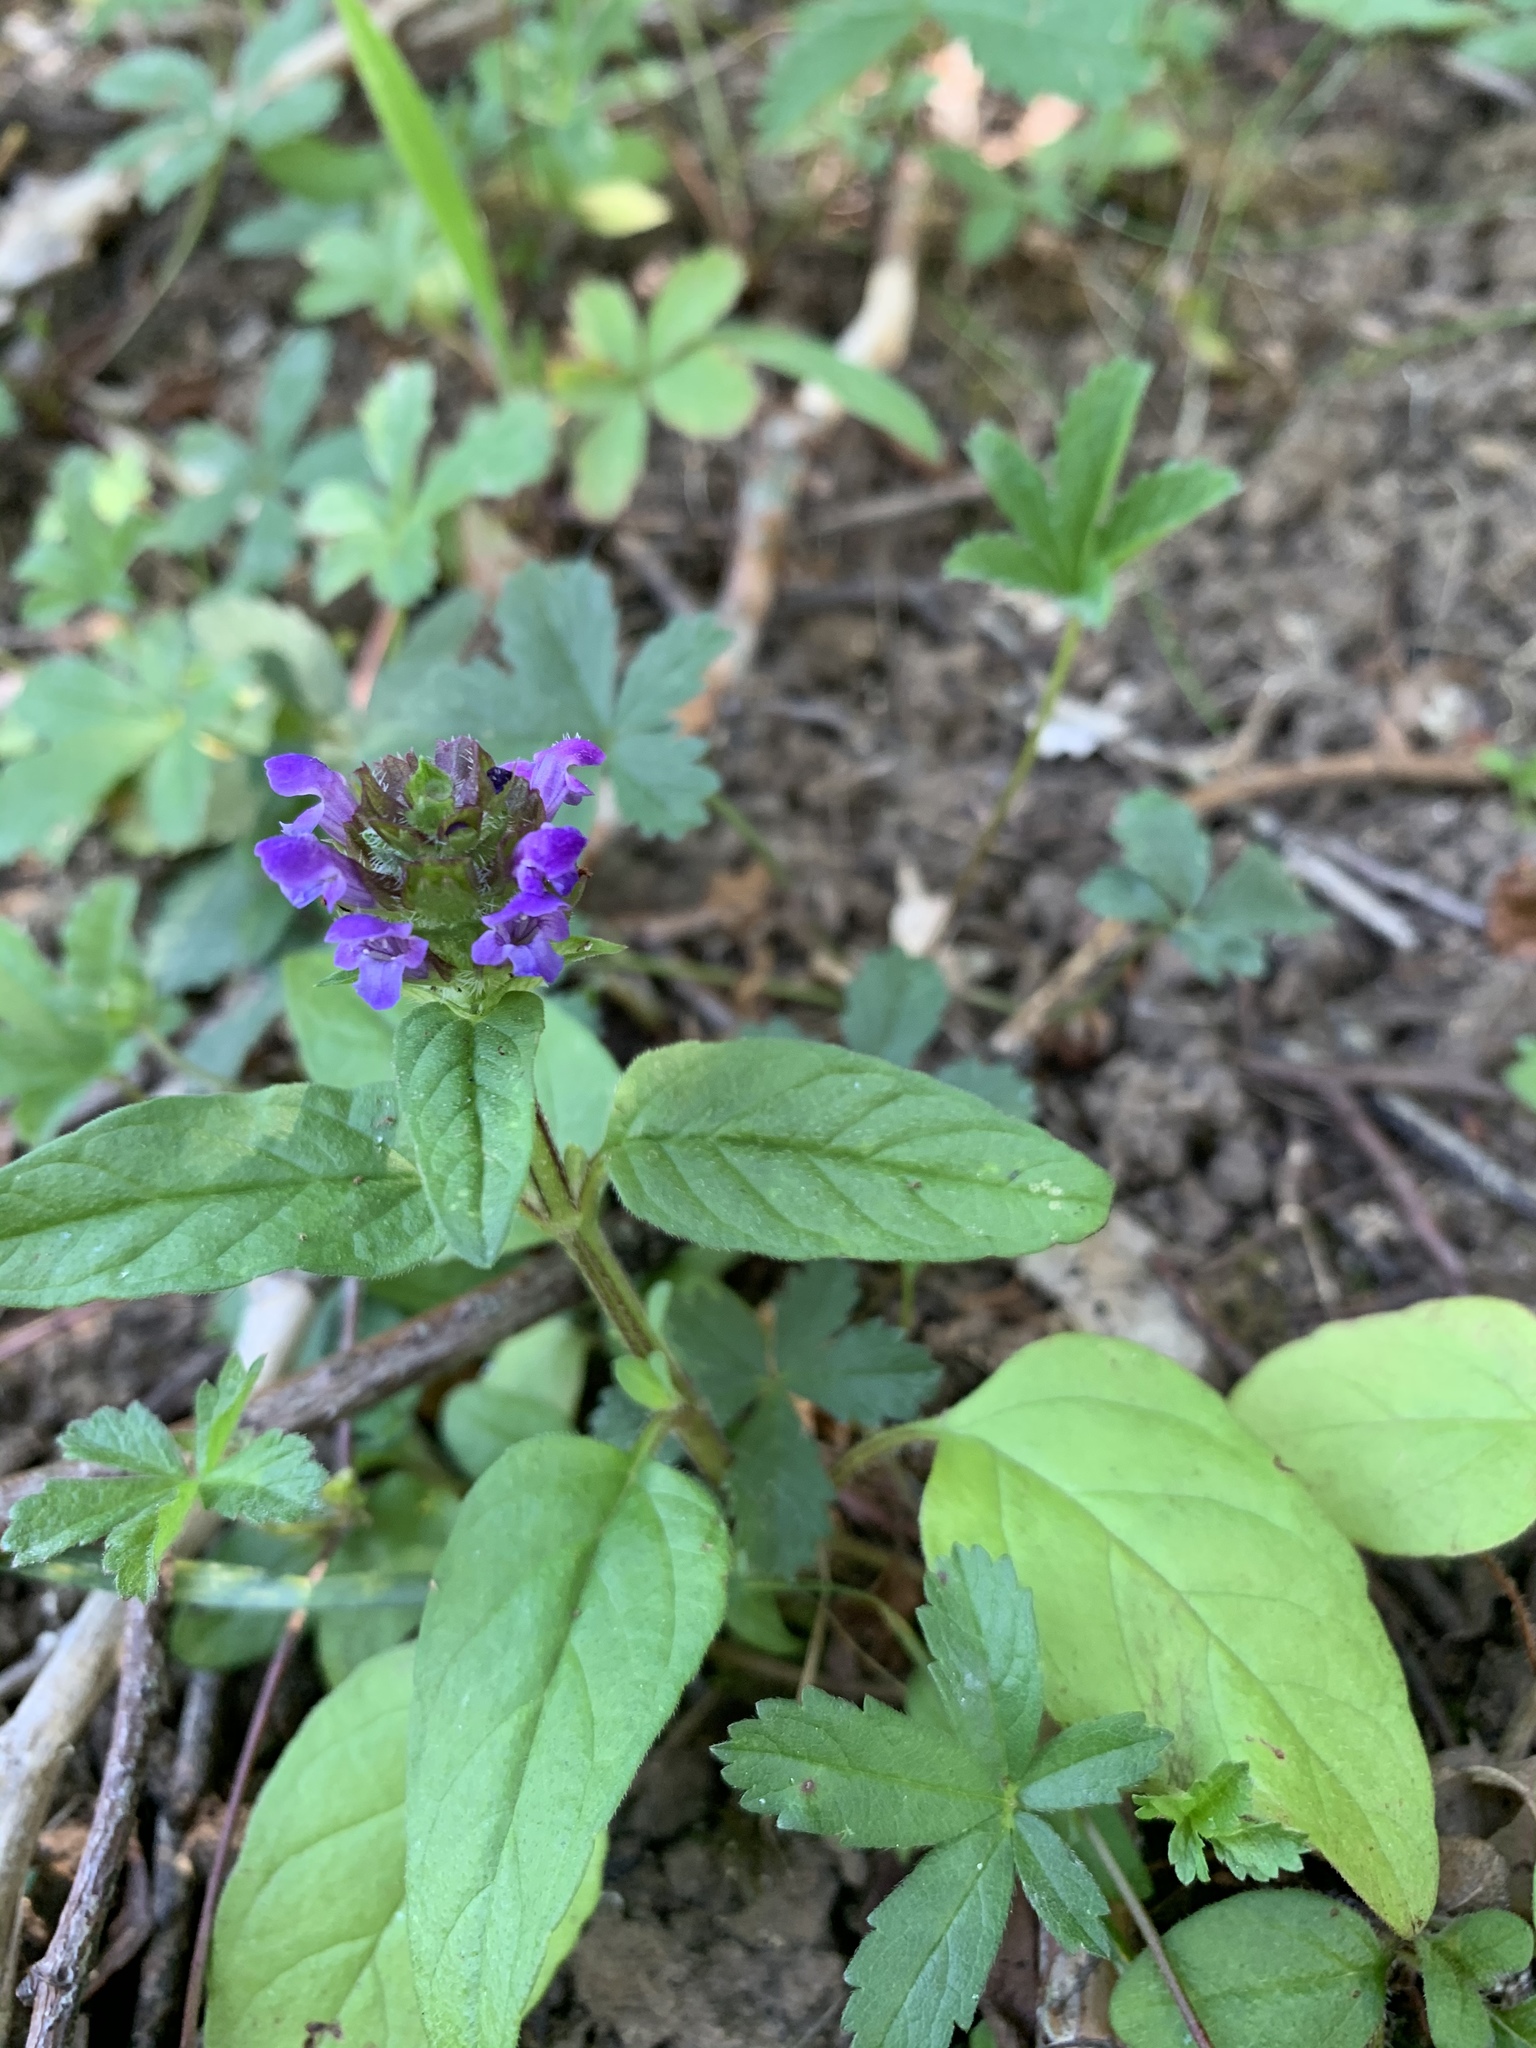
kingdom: Plantae
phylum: Tracheophyta
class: Magnoliopsida
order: Lamiales
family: Lamiaceae
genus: Prunella
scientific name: Prunella vulgaris
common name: Heal-all
